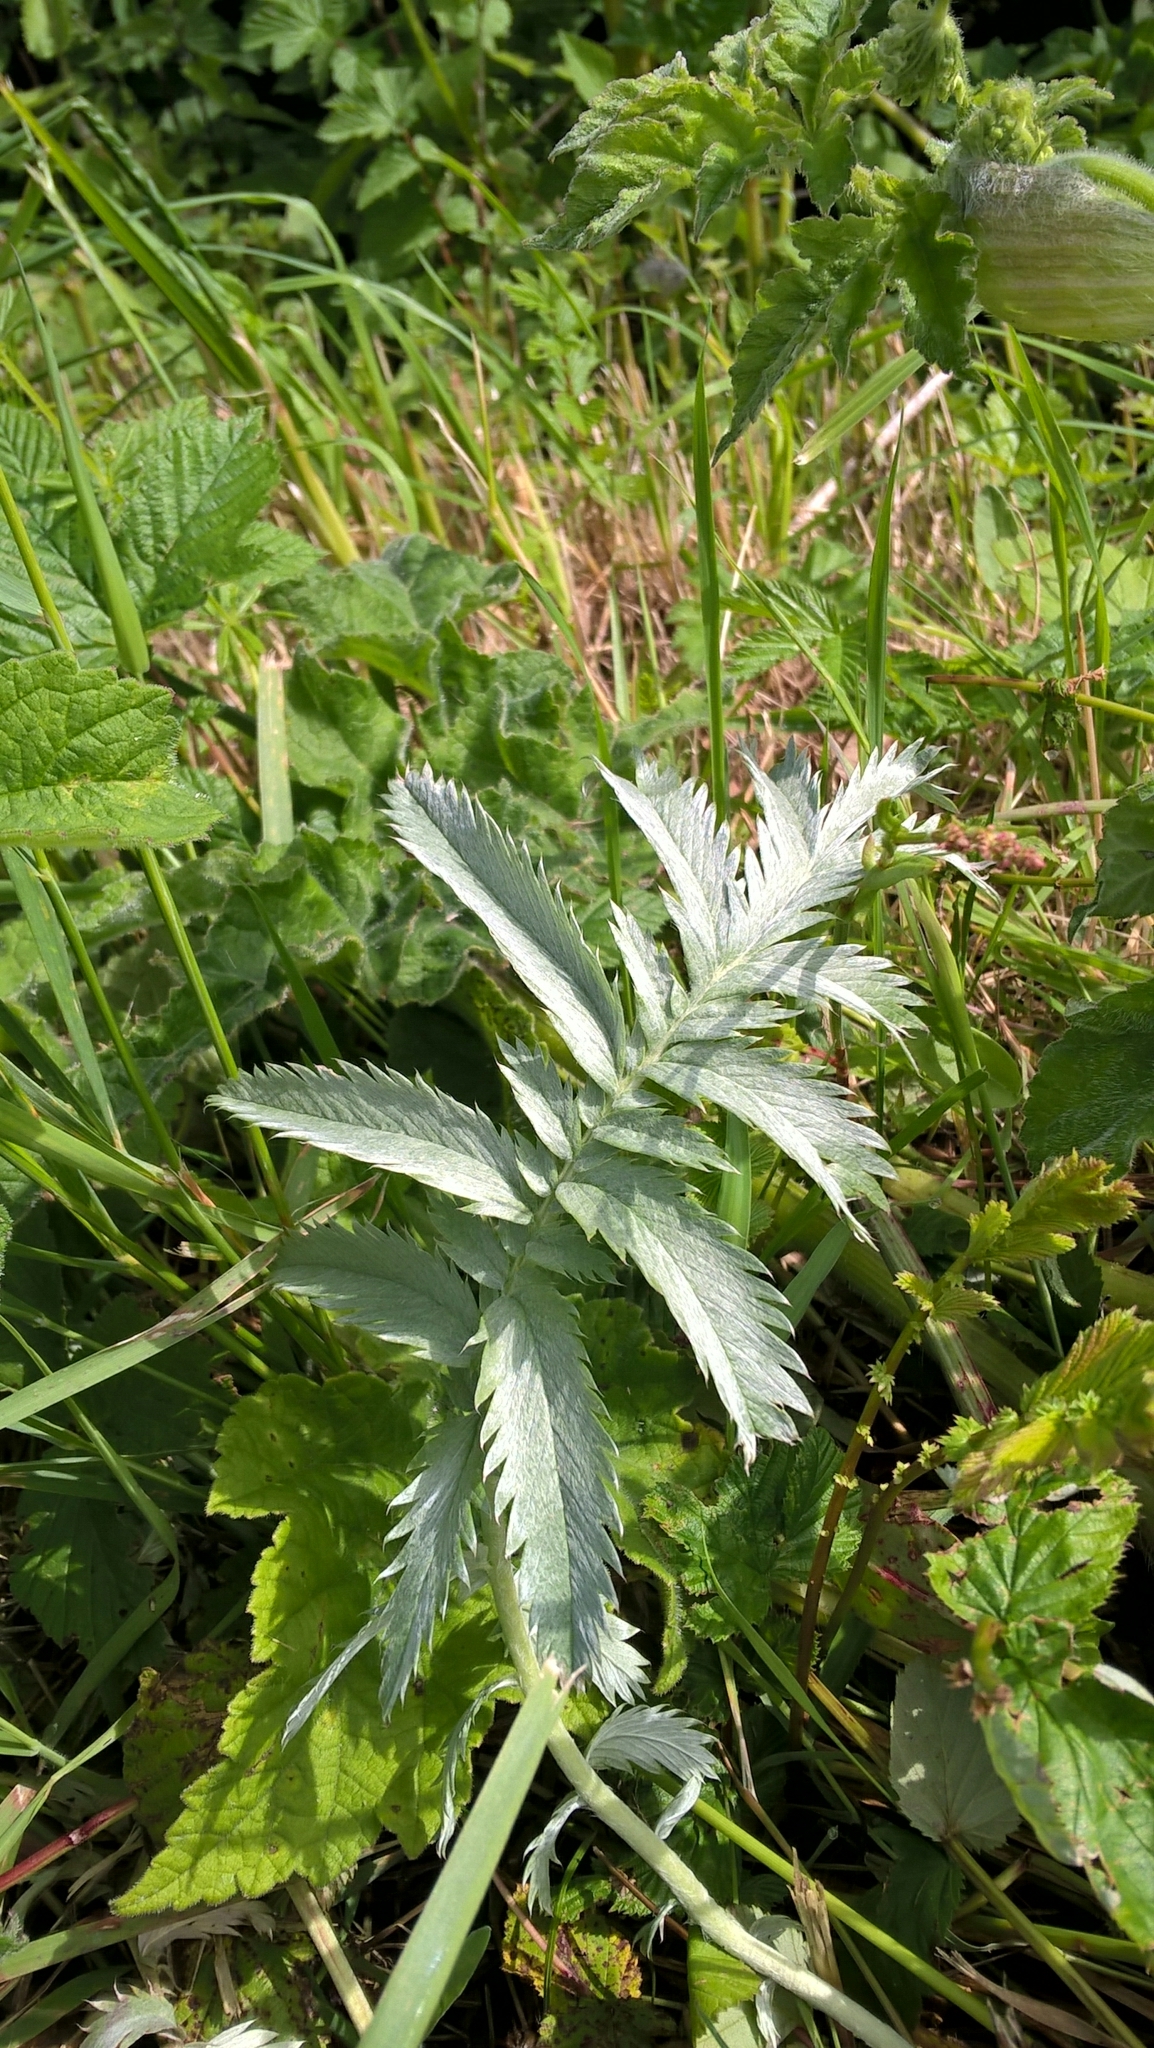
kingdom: Plantae
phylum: Tracheophyta
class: Magnoliopsida
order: Rosales
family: Rosaceae
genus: Argentina
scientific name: Argentina anserina
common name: Common silverweed
